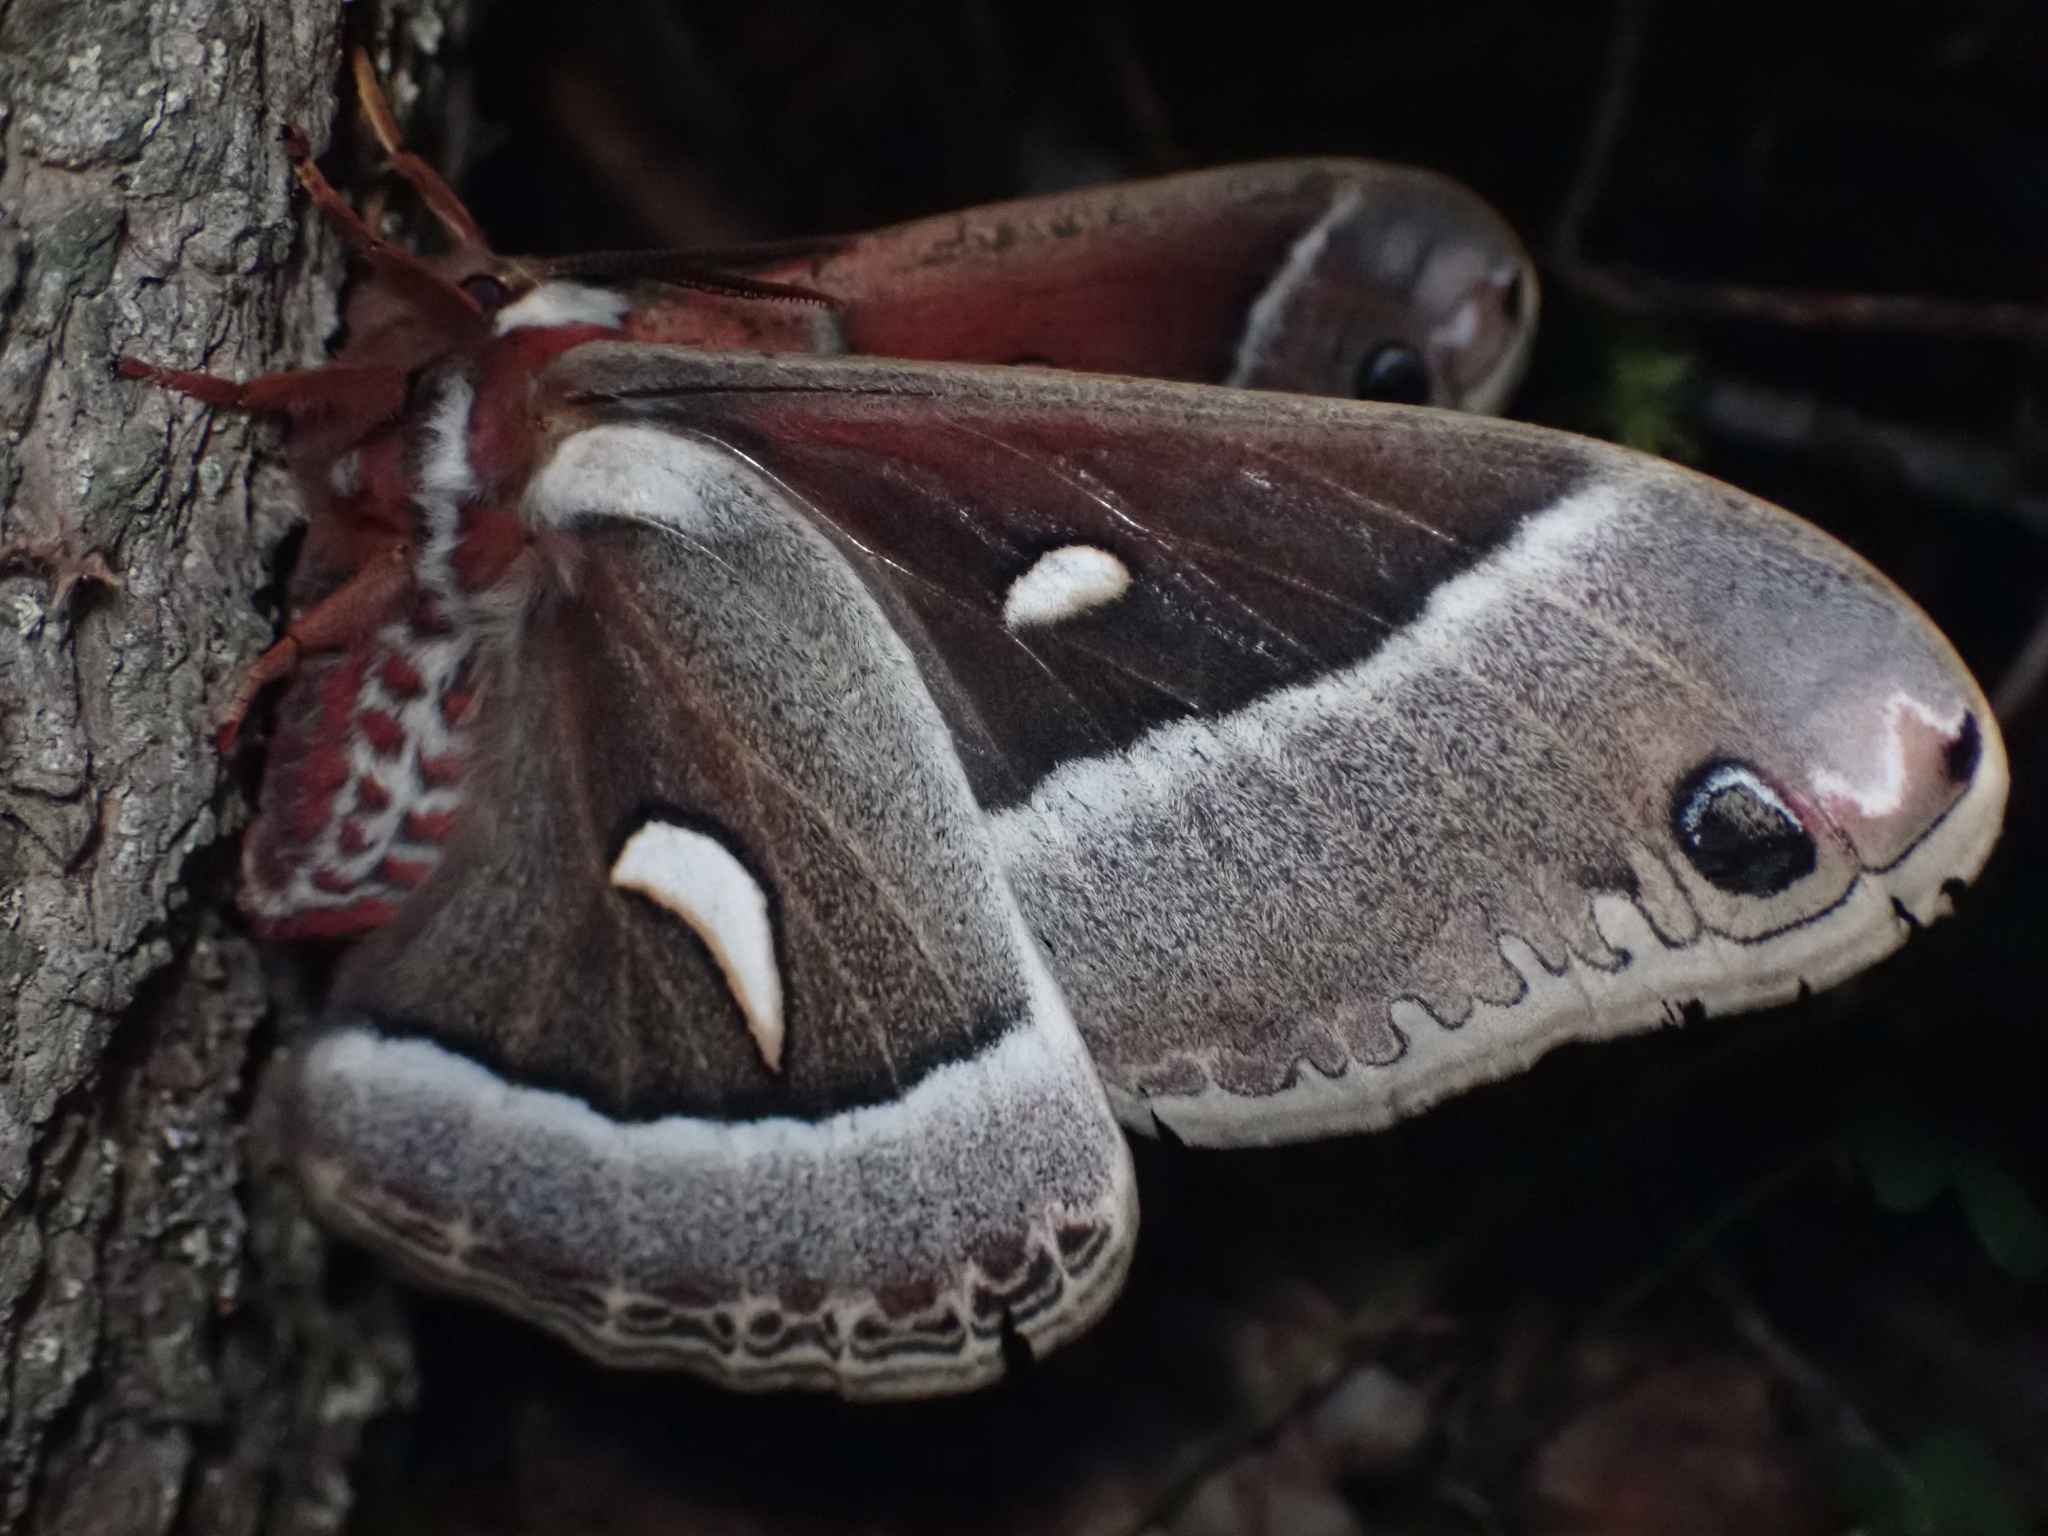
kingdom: Animalia
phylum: Arthropoda
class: Insecta
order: Lepidoptera
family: Saturniidae
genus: Hyalophora
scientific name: Hyalophora euryalus
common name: Ceanothus silkmoth
